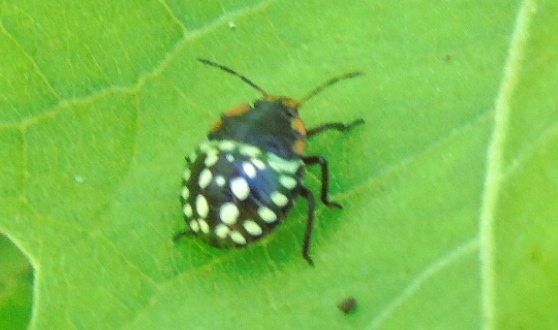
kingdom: Animalia
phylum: Arthropoda
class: Insecta
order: Hemiptera
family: Pentatomidae
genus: Nezara
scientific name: Nezara viridula
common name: Southern green stink bug
